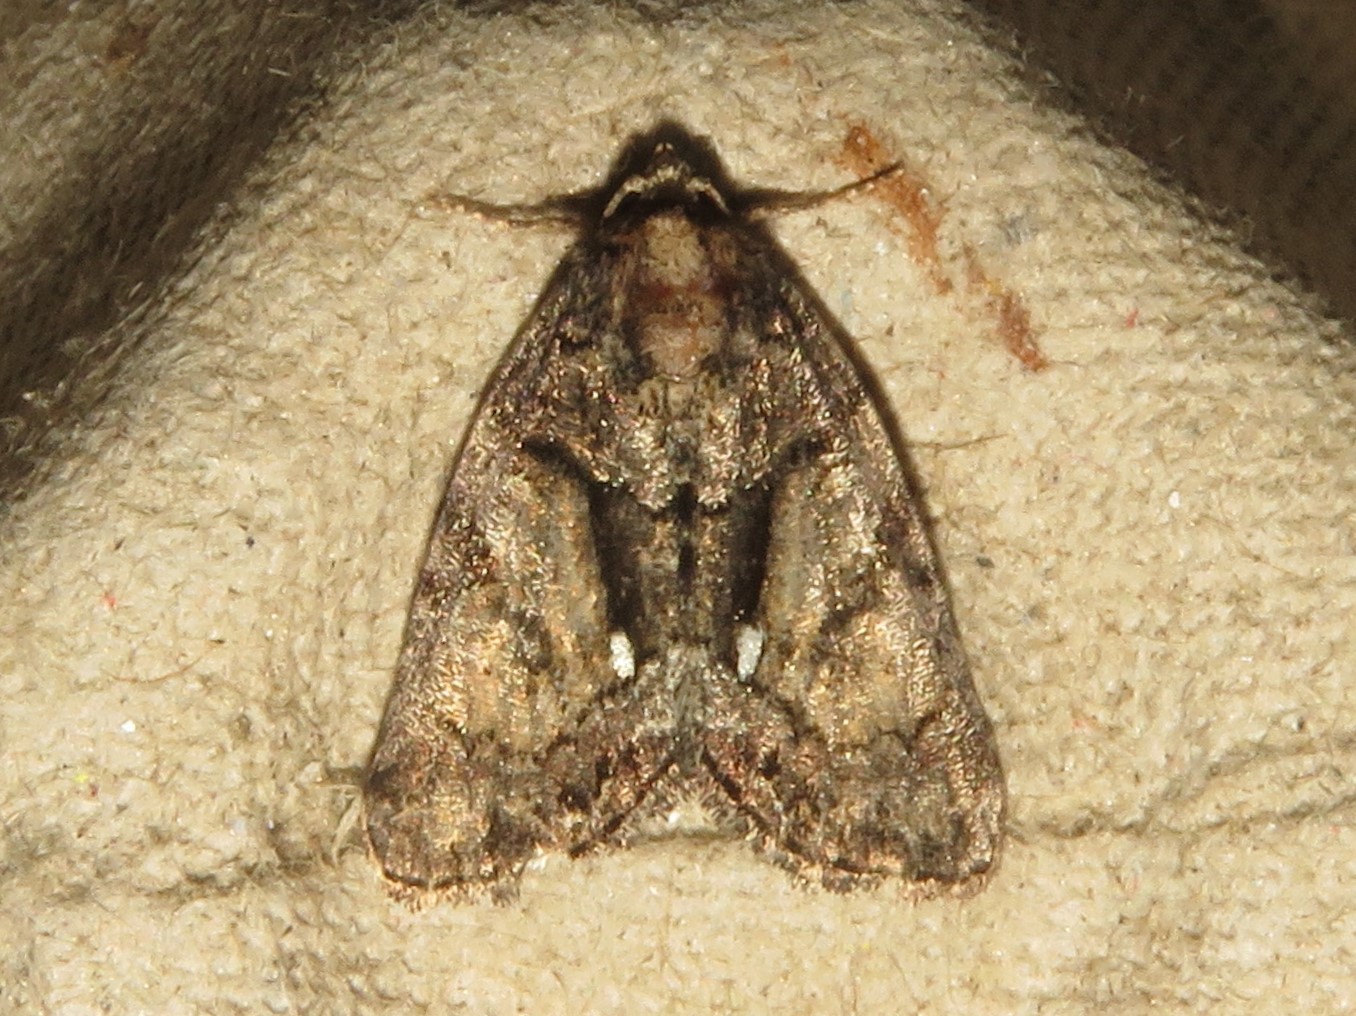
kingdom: Animalia
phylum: Arthropoda
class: Insecta
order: Lepidoptera
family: Noctuidae
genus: Chytonix
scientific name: Chytonix palliatricula
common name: Cloaked marvel
